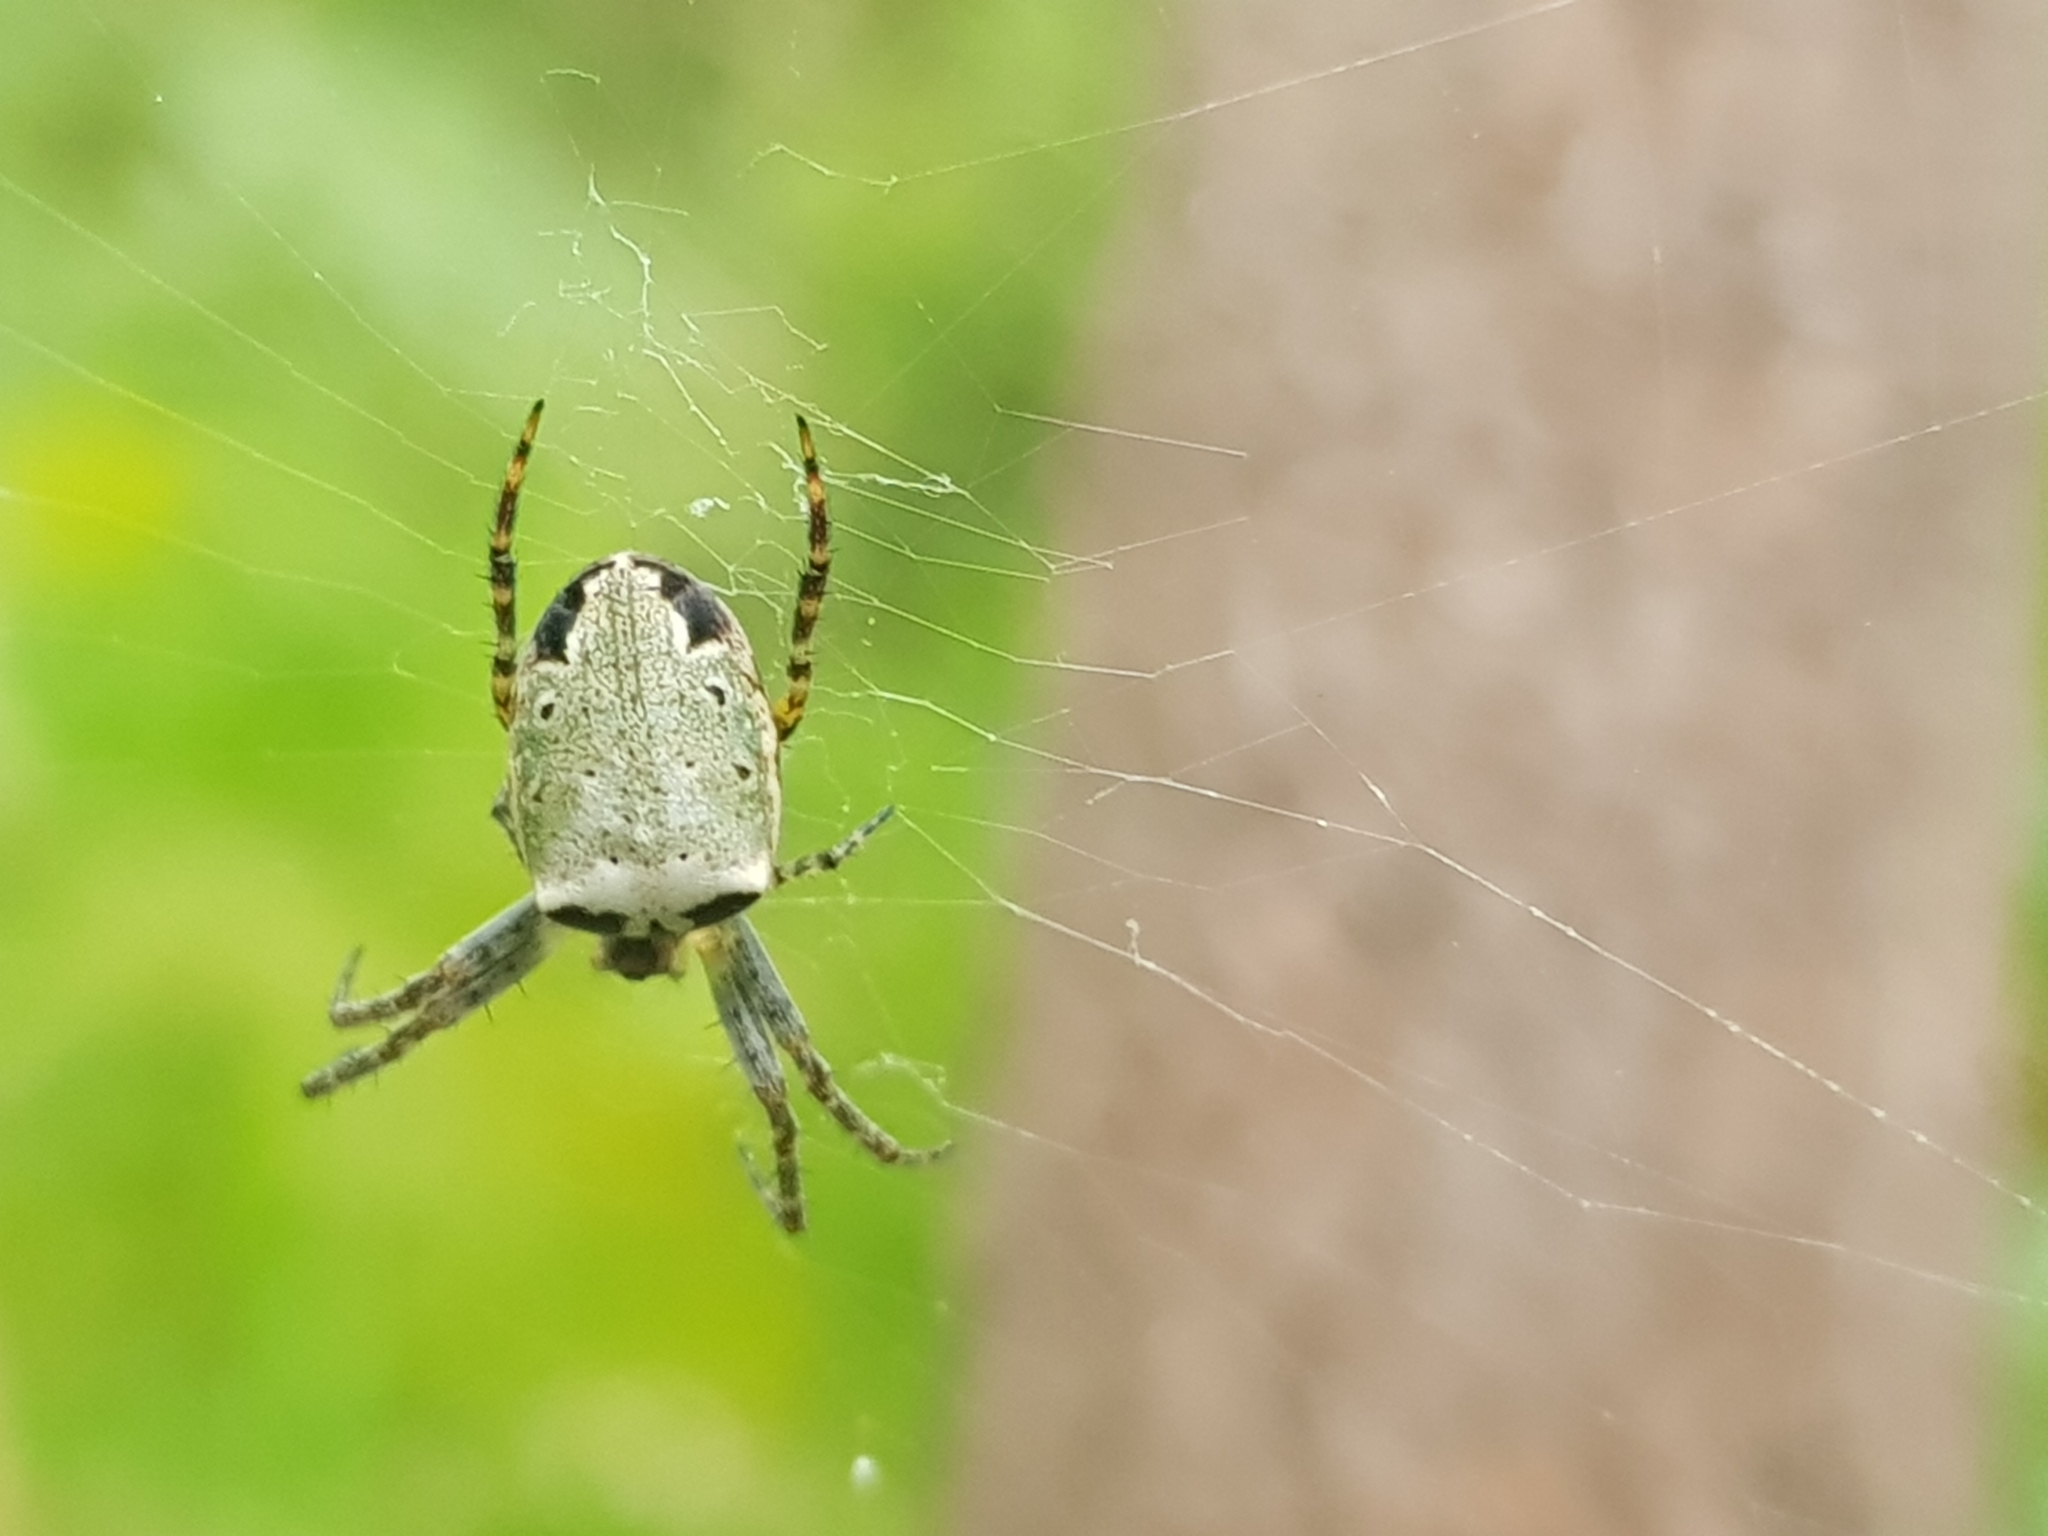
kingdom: Animalia
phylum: Arthropoda
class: Arachnida
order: Araneae
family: Araneidae
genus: Plebs
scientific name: Plebs eburnus
